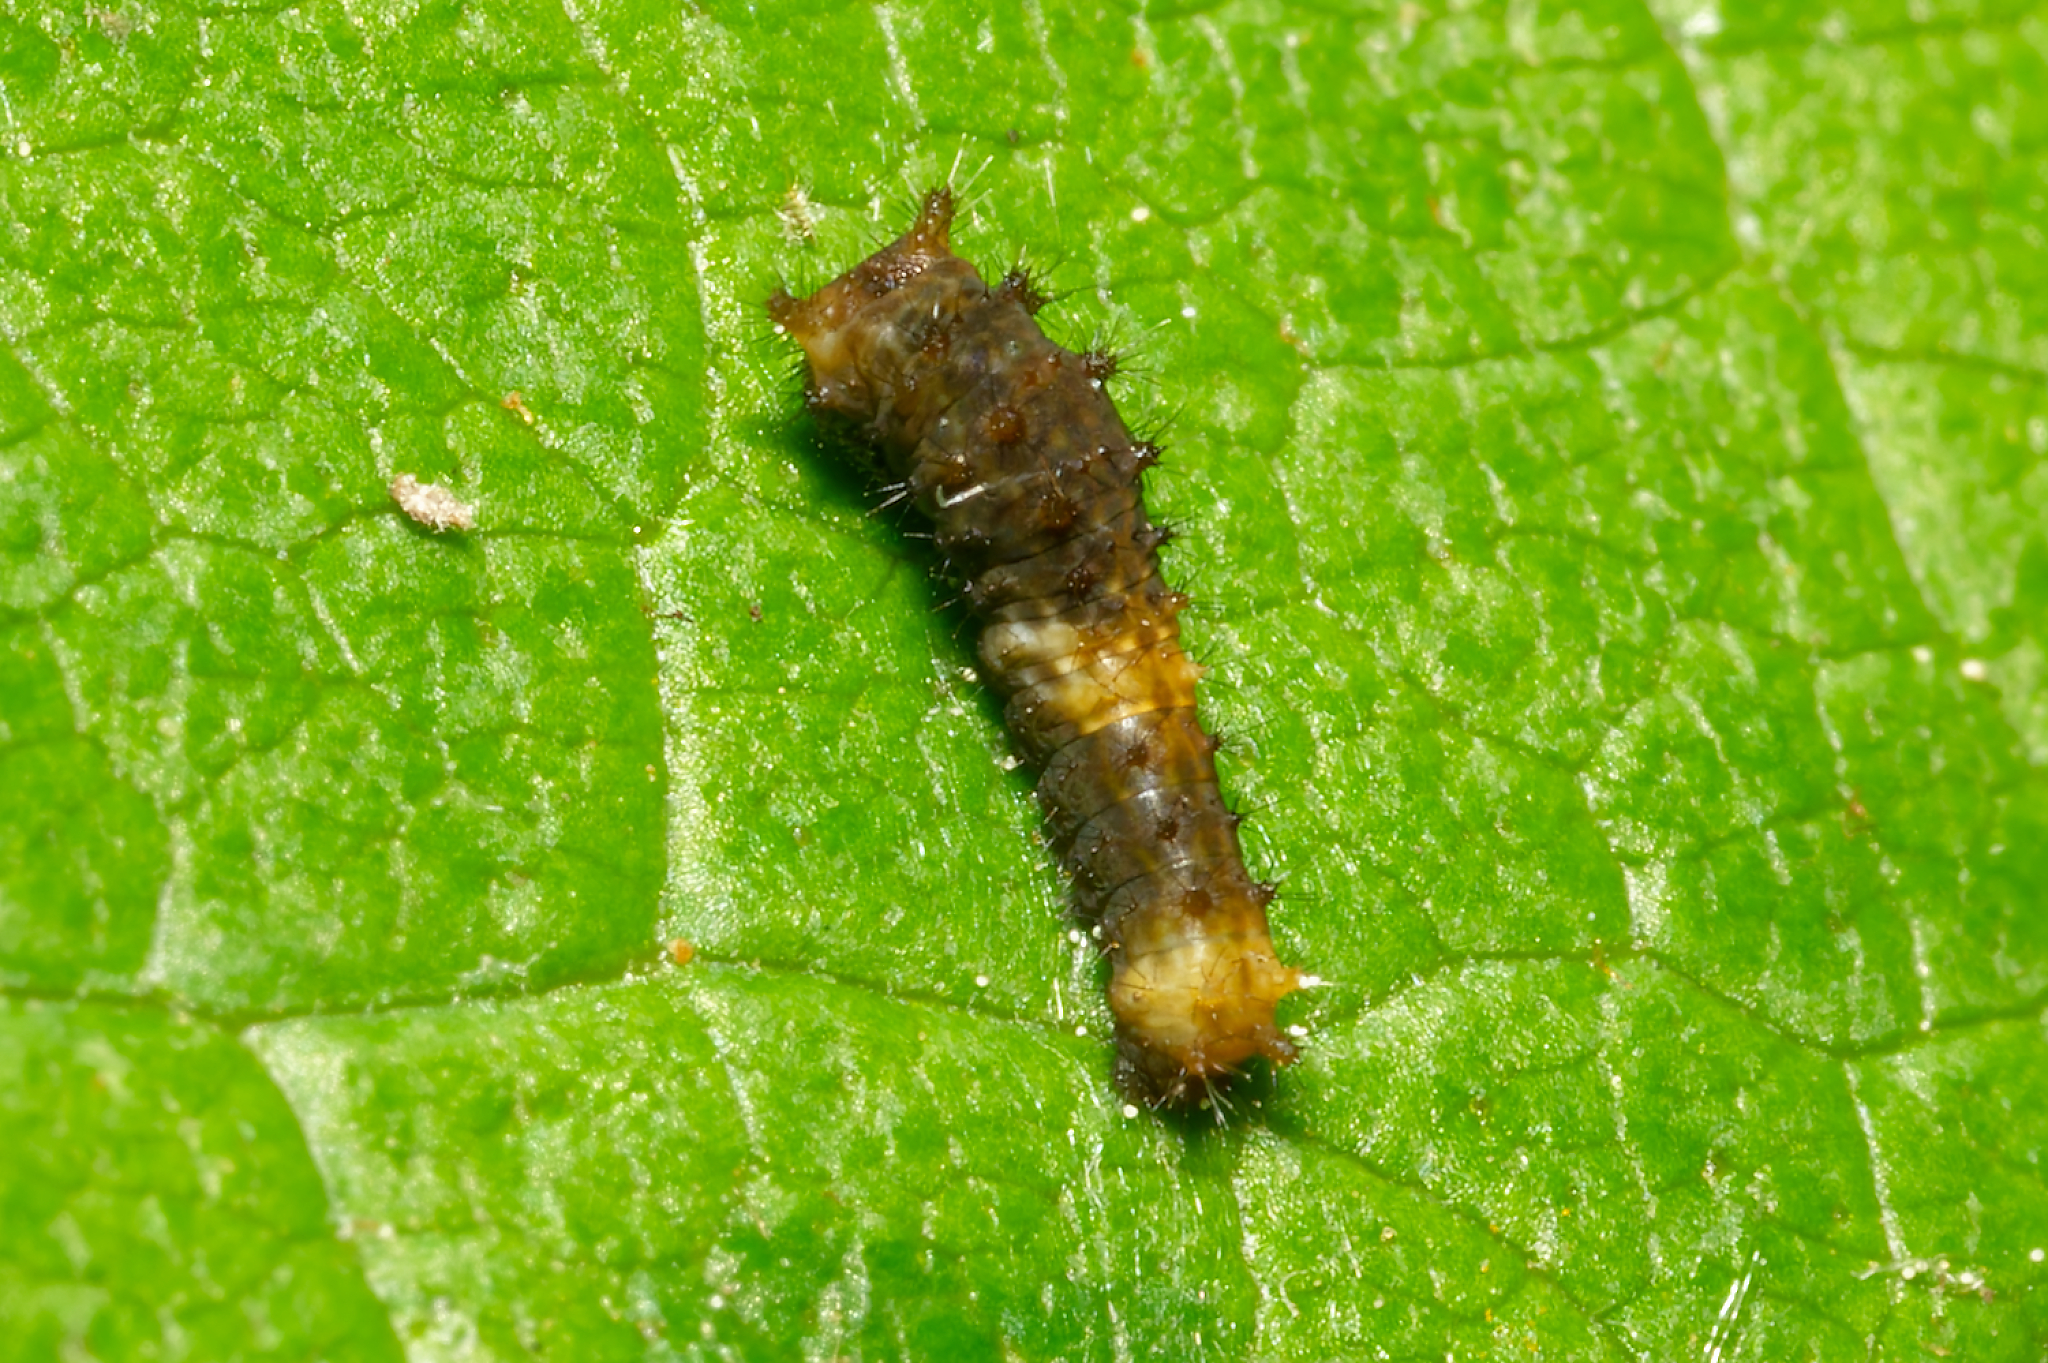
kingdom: Animalia
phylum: Arthropoda
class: Insecta
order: Lepidoptera
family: Papilionidae
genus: Papilio
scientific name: Papilio cresphontes
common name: Giant swallowtail
